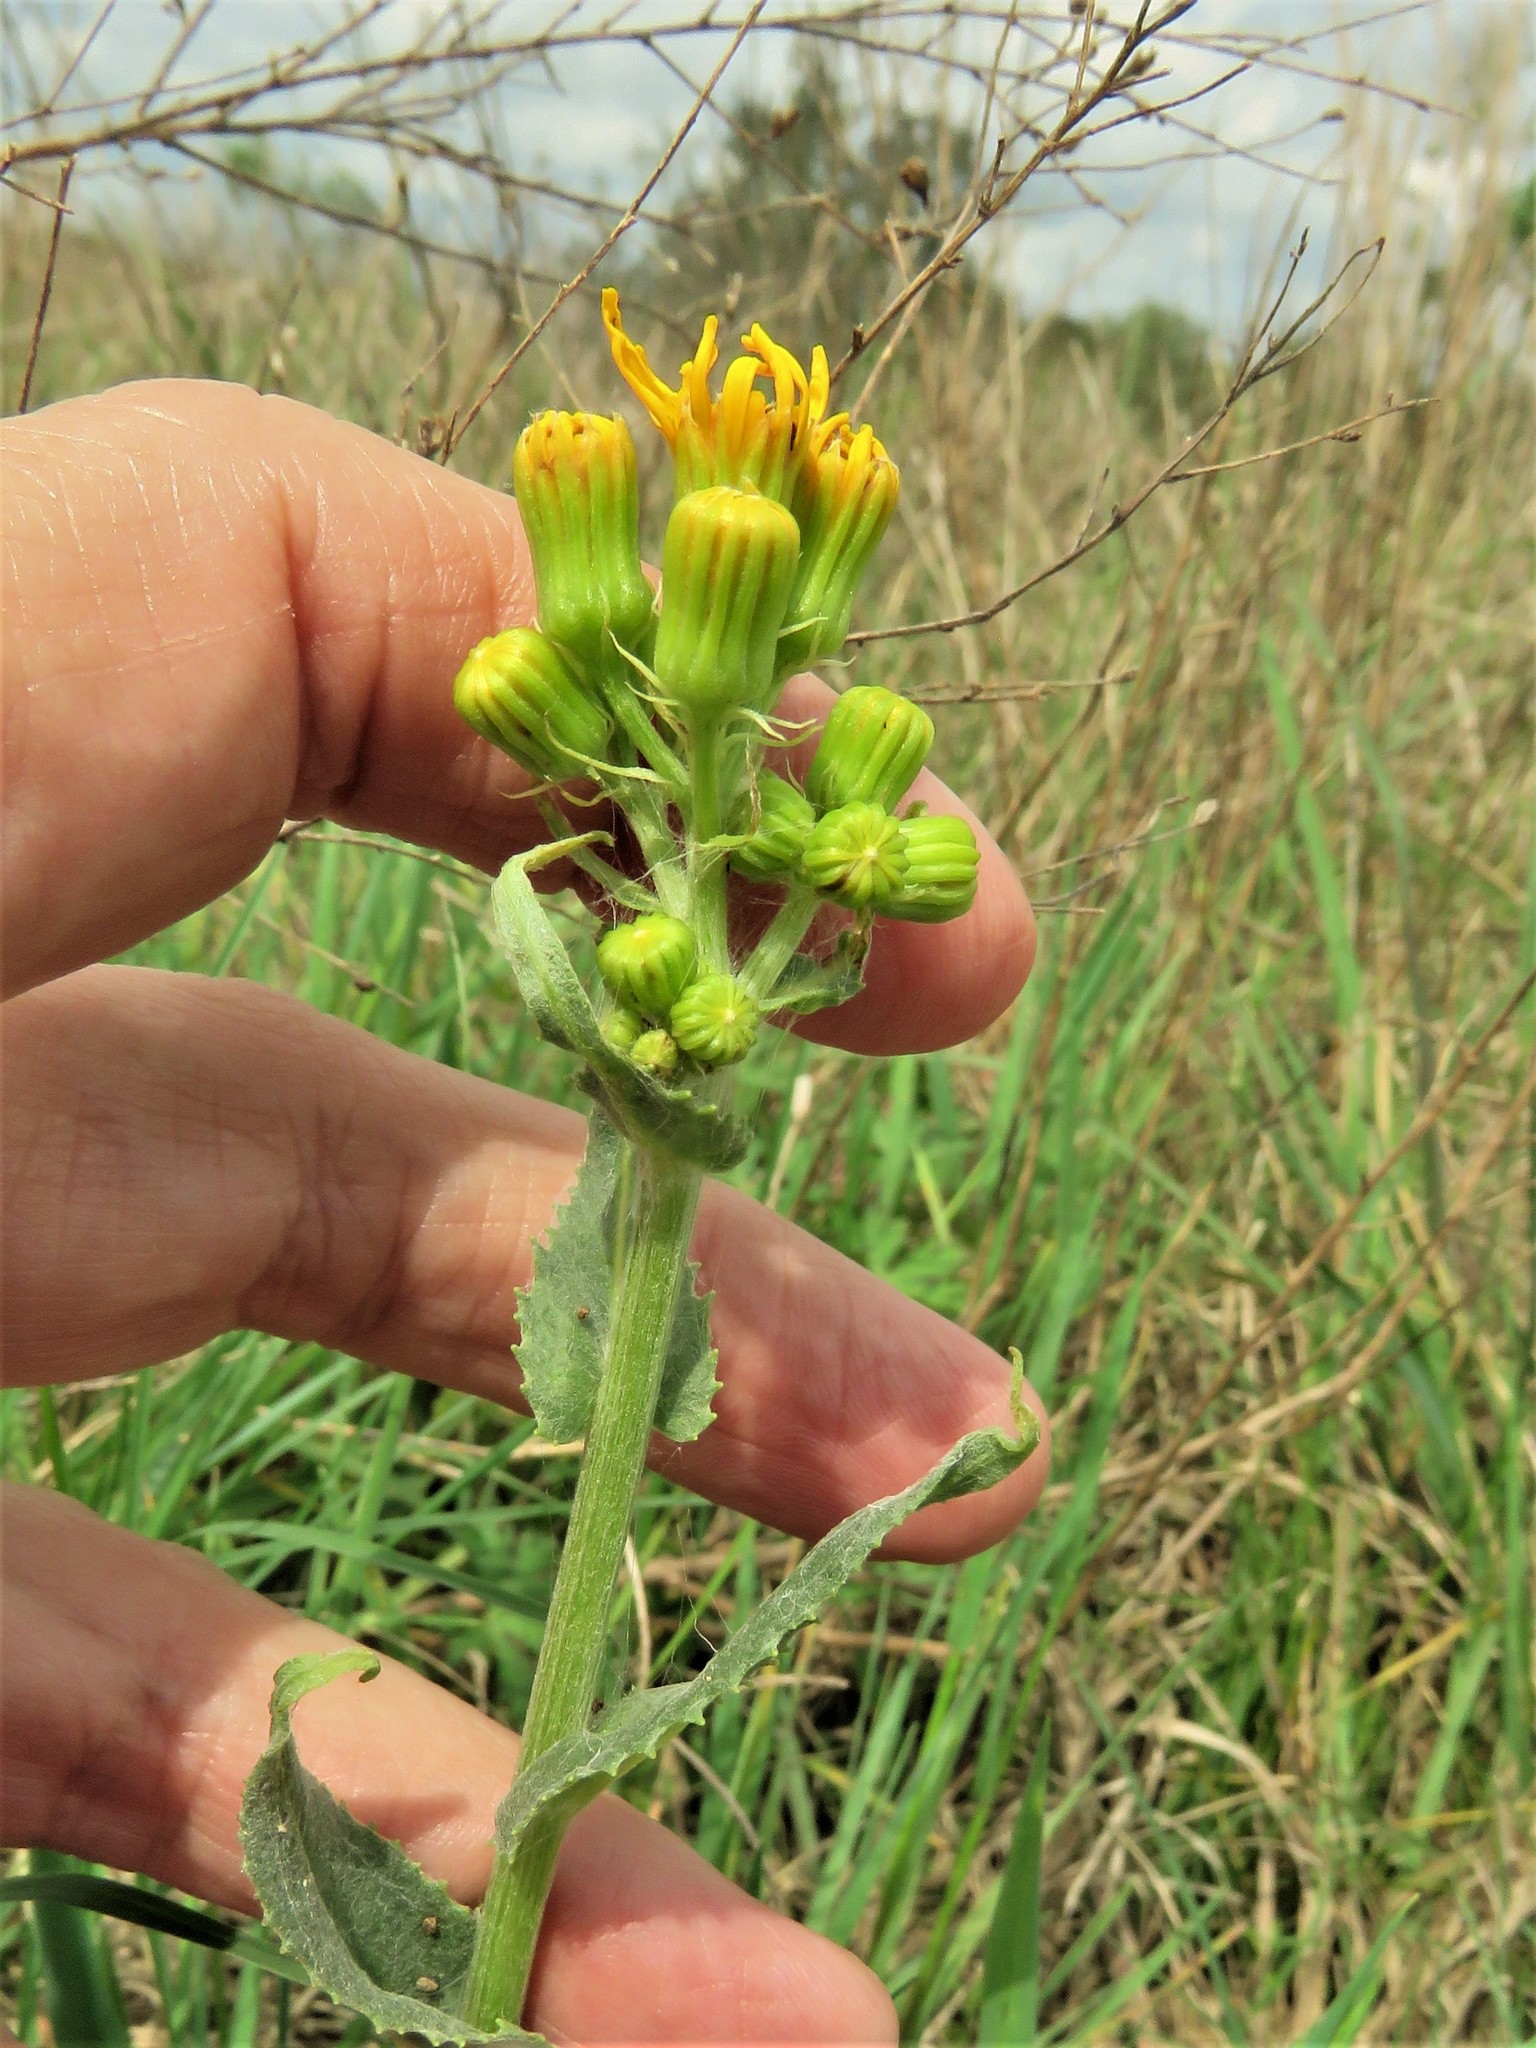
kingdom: Plantae
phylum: Tracheophyta
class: Magnoliopsida
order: Asterales
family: Asteraceae
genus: Senecio
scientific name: Senecio ampullaceus
